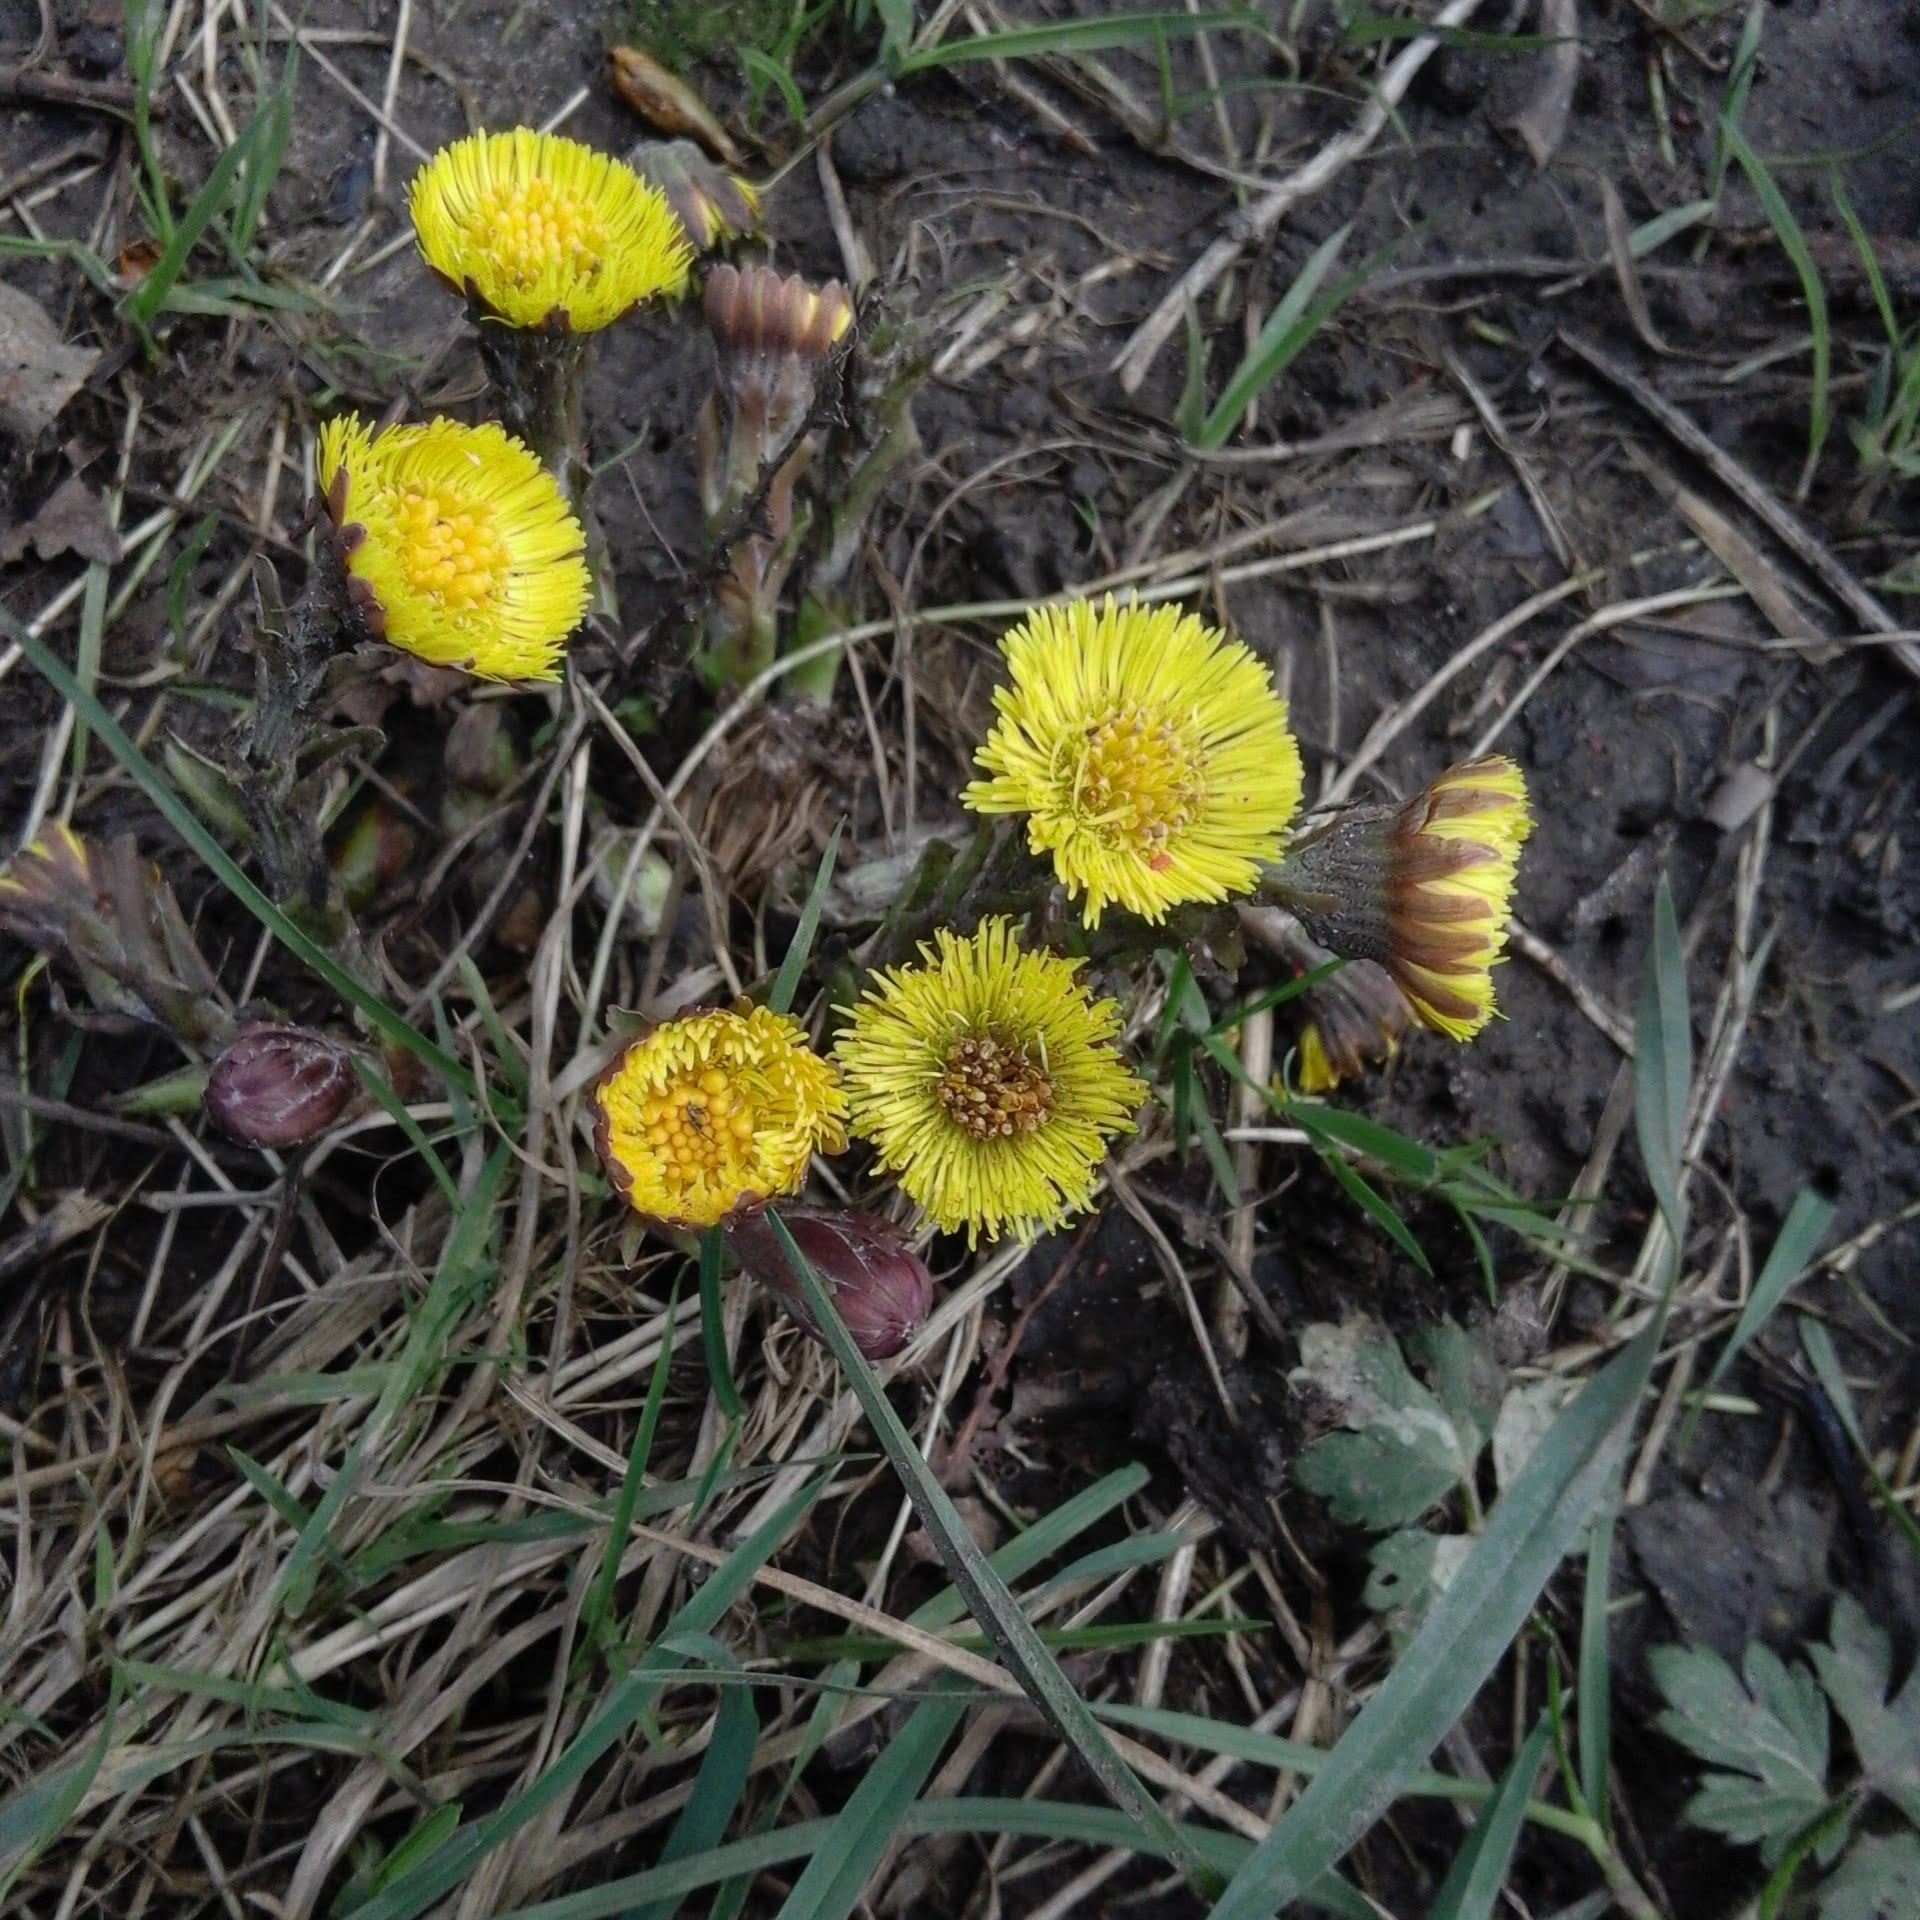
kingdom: Plantae
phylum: Tracheophyta
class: Magnoliopsida
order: Asterales
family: Asteraceae
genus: Tussilago
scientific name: Tussilago farfara
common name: Coltsfoot
